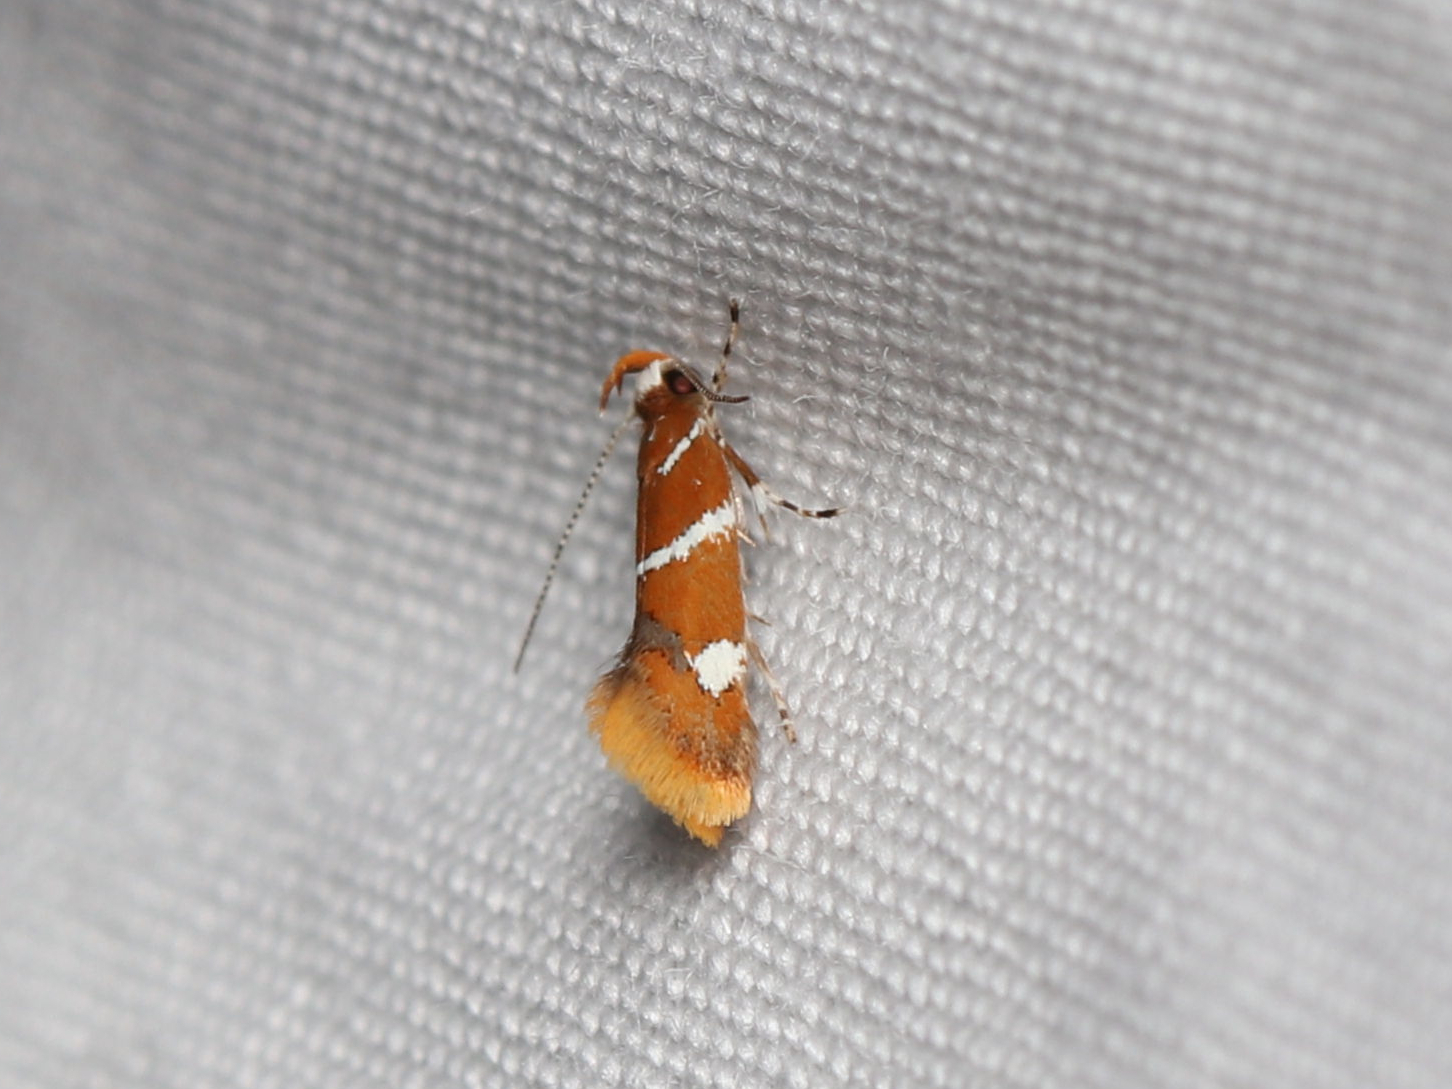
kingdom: Animalia
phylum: Arthropoda
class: Insecta
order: Lepidoptera
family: Oecophoridae
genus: Promalactis
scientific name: Promalactis suzukiella
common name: Moth
